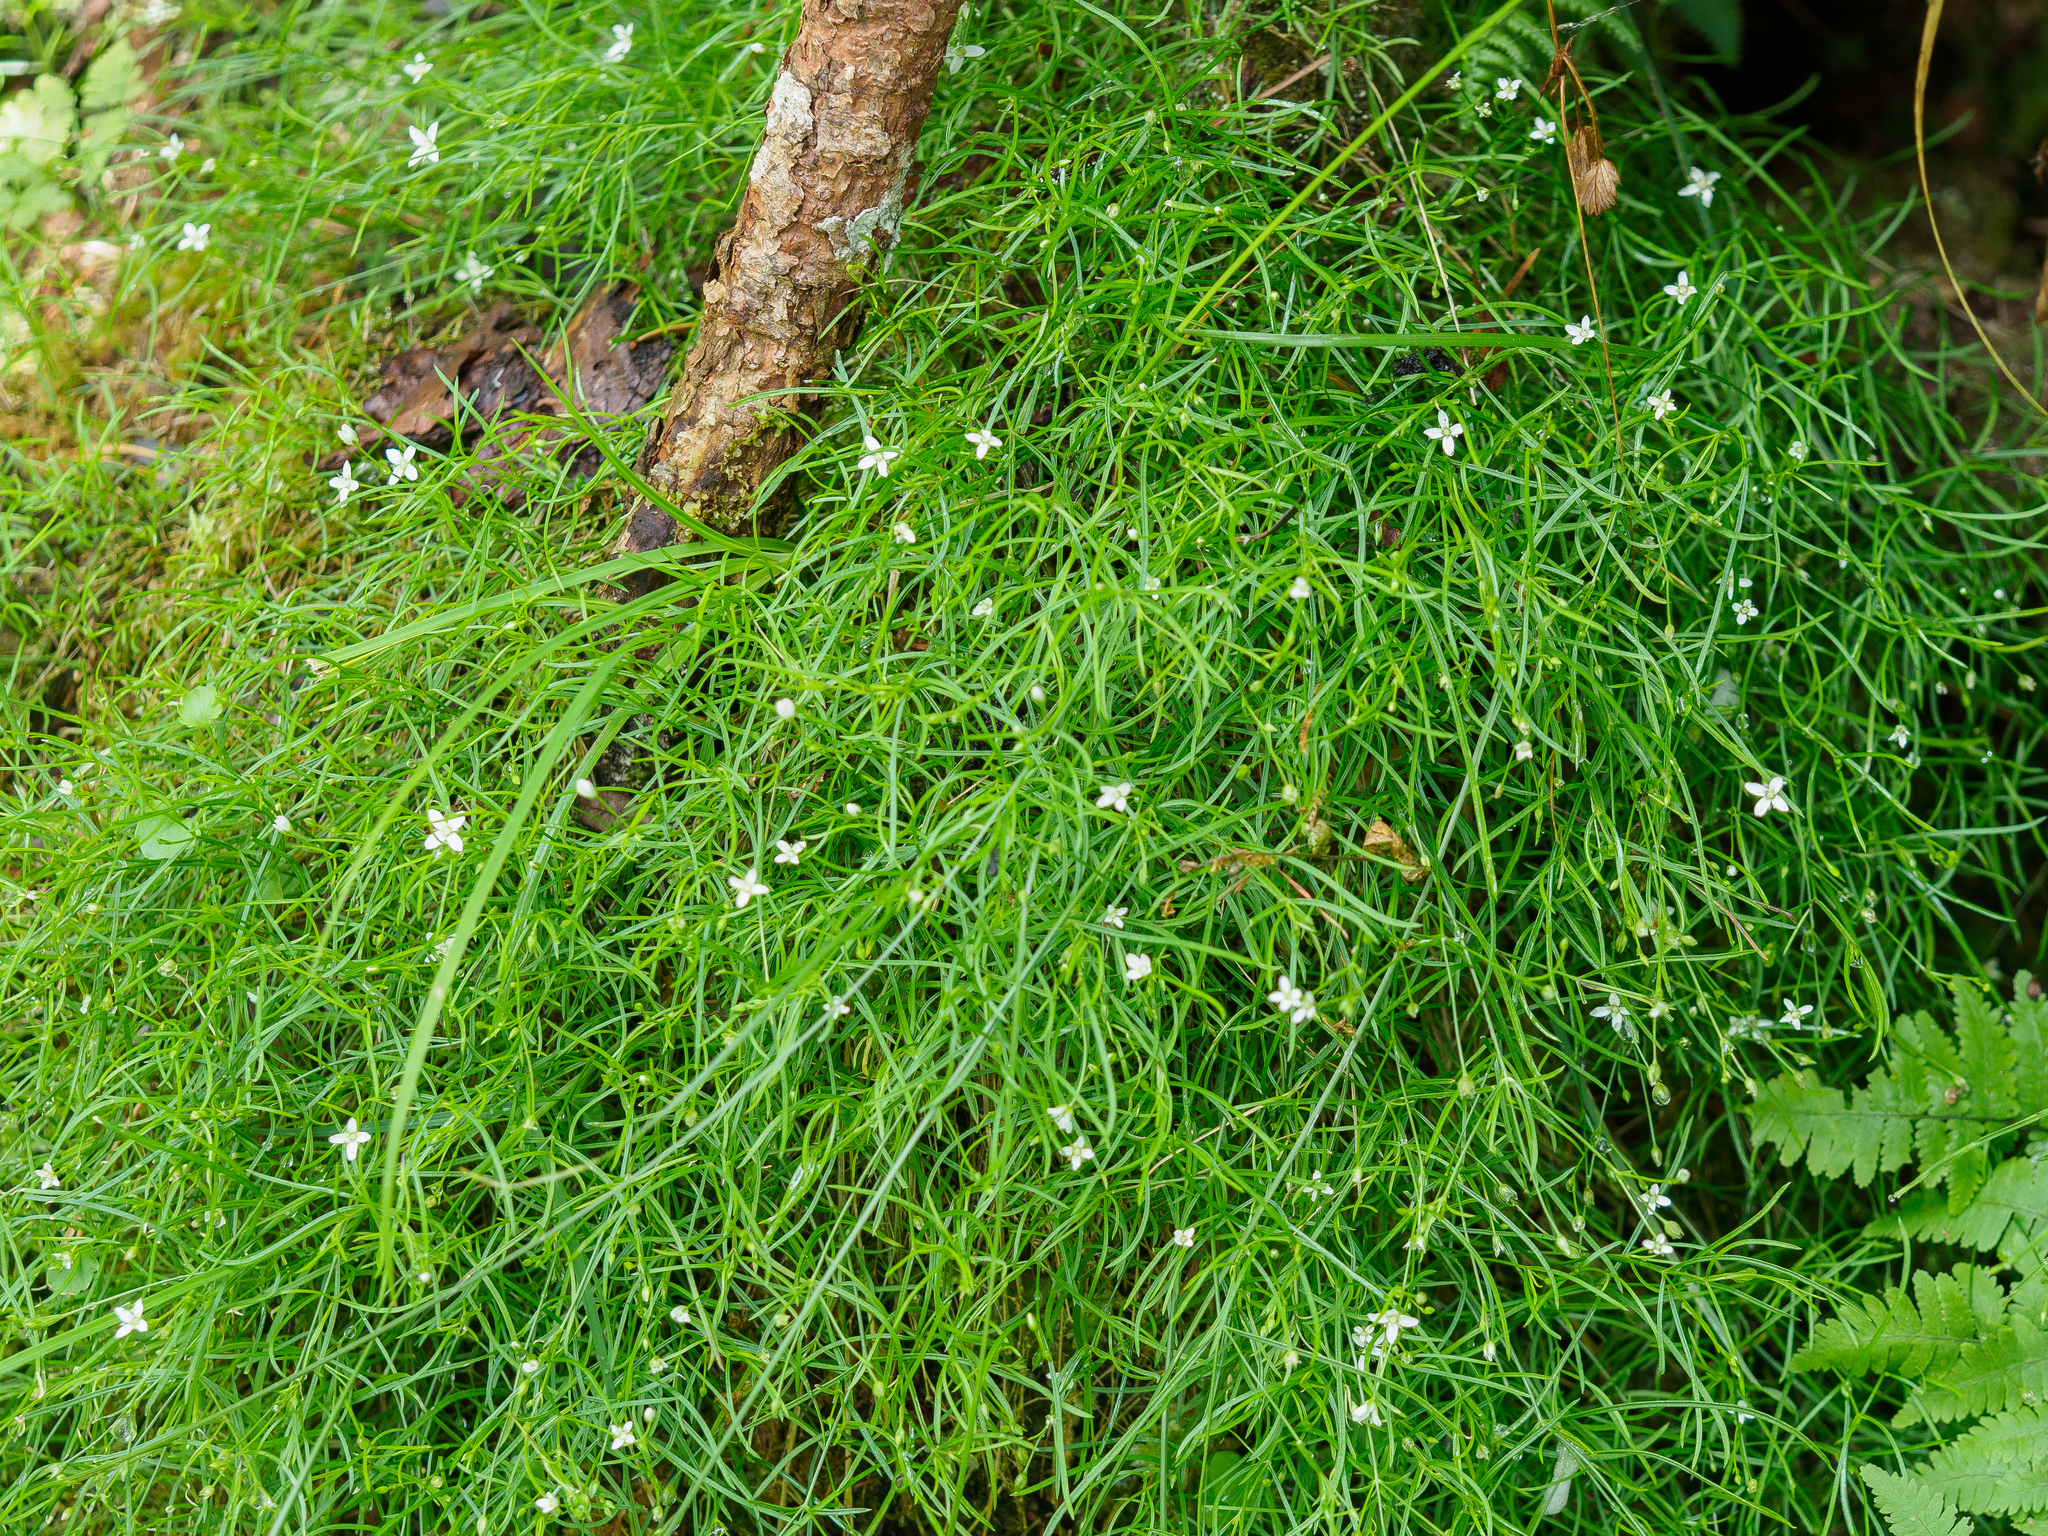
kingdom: Plantae
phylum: Tracheophyta
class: Magnoliopsida
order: Caryophyllales
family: Caryophyllaceae
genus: Moehringia
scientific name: Moehringia muscosa
